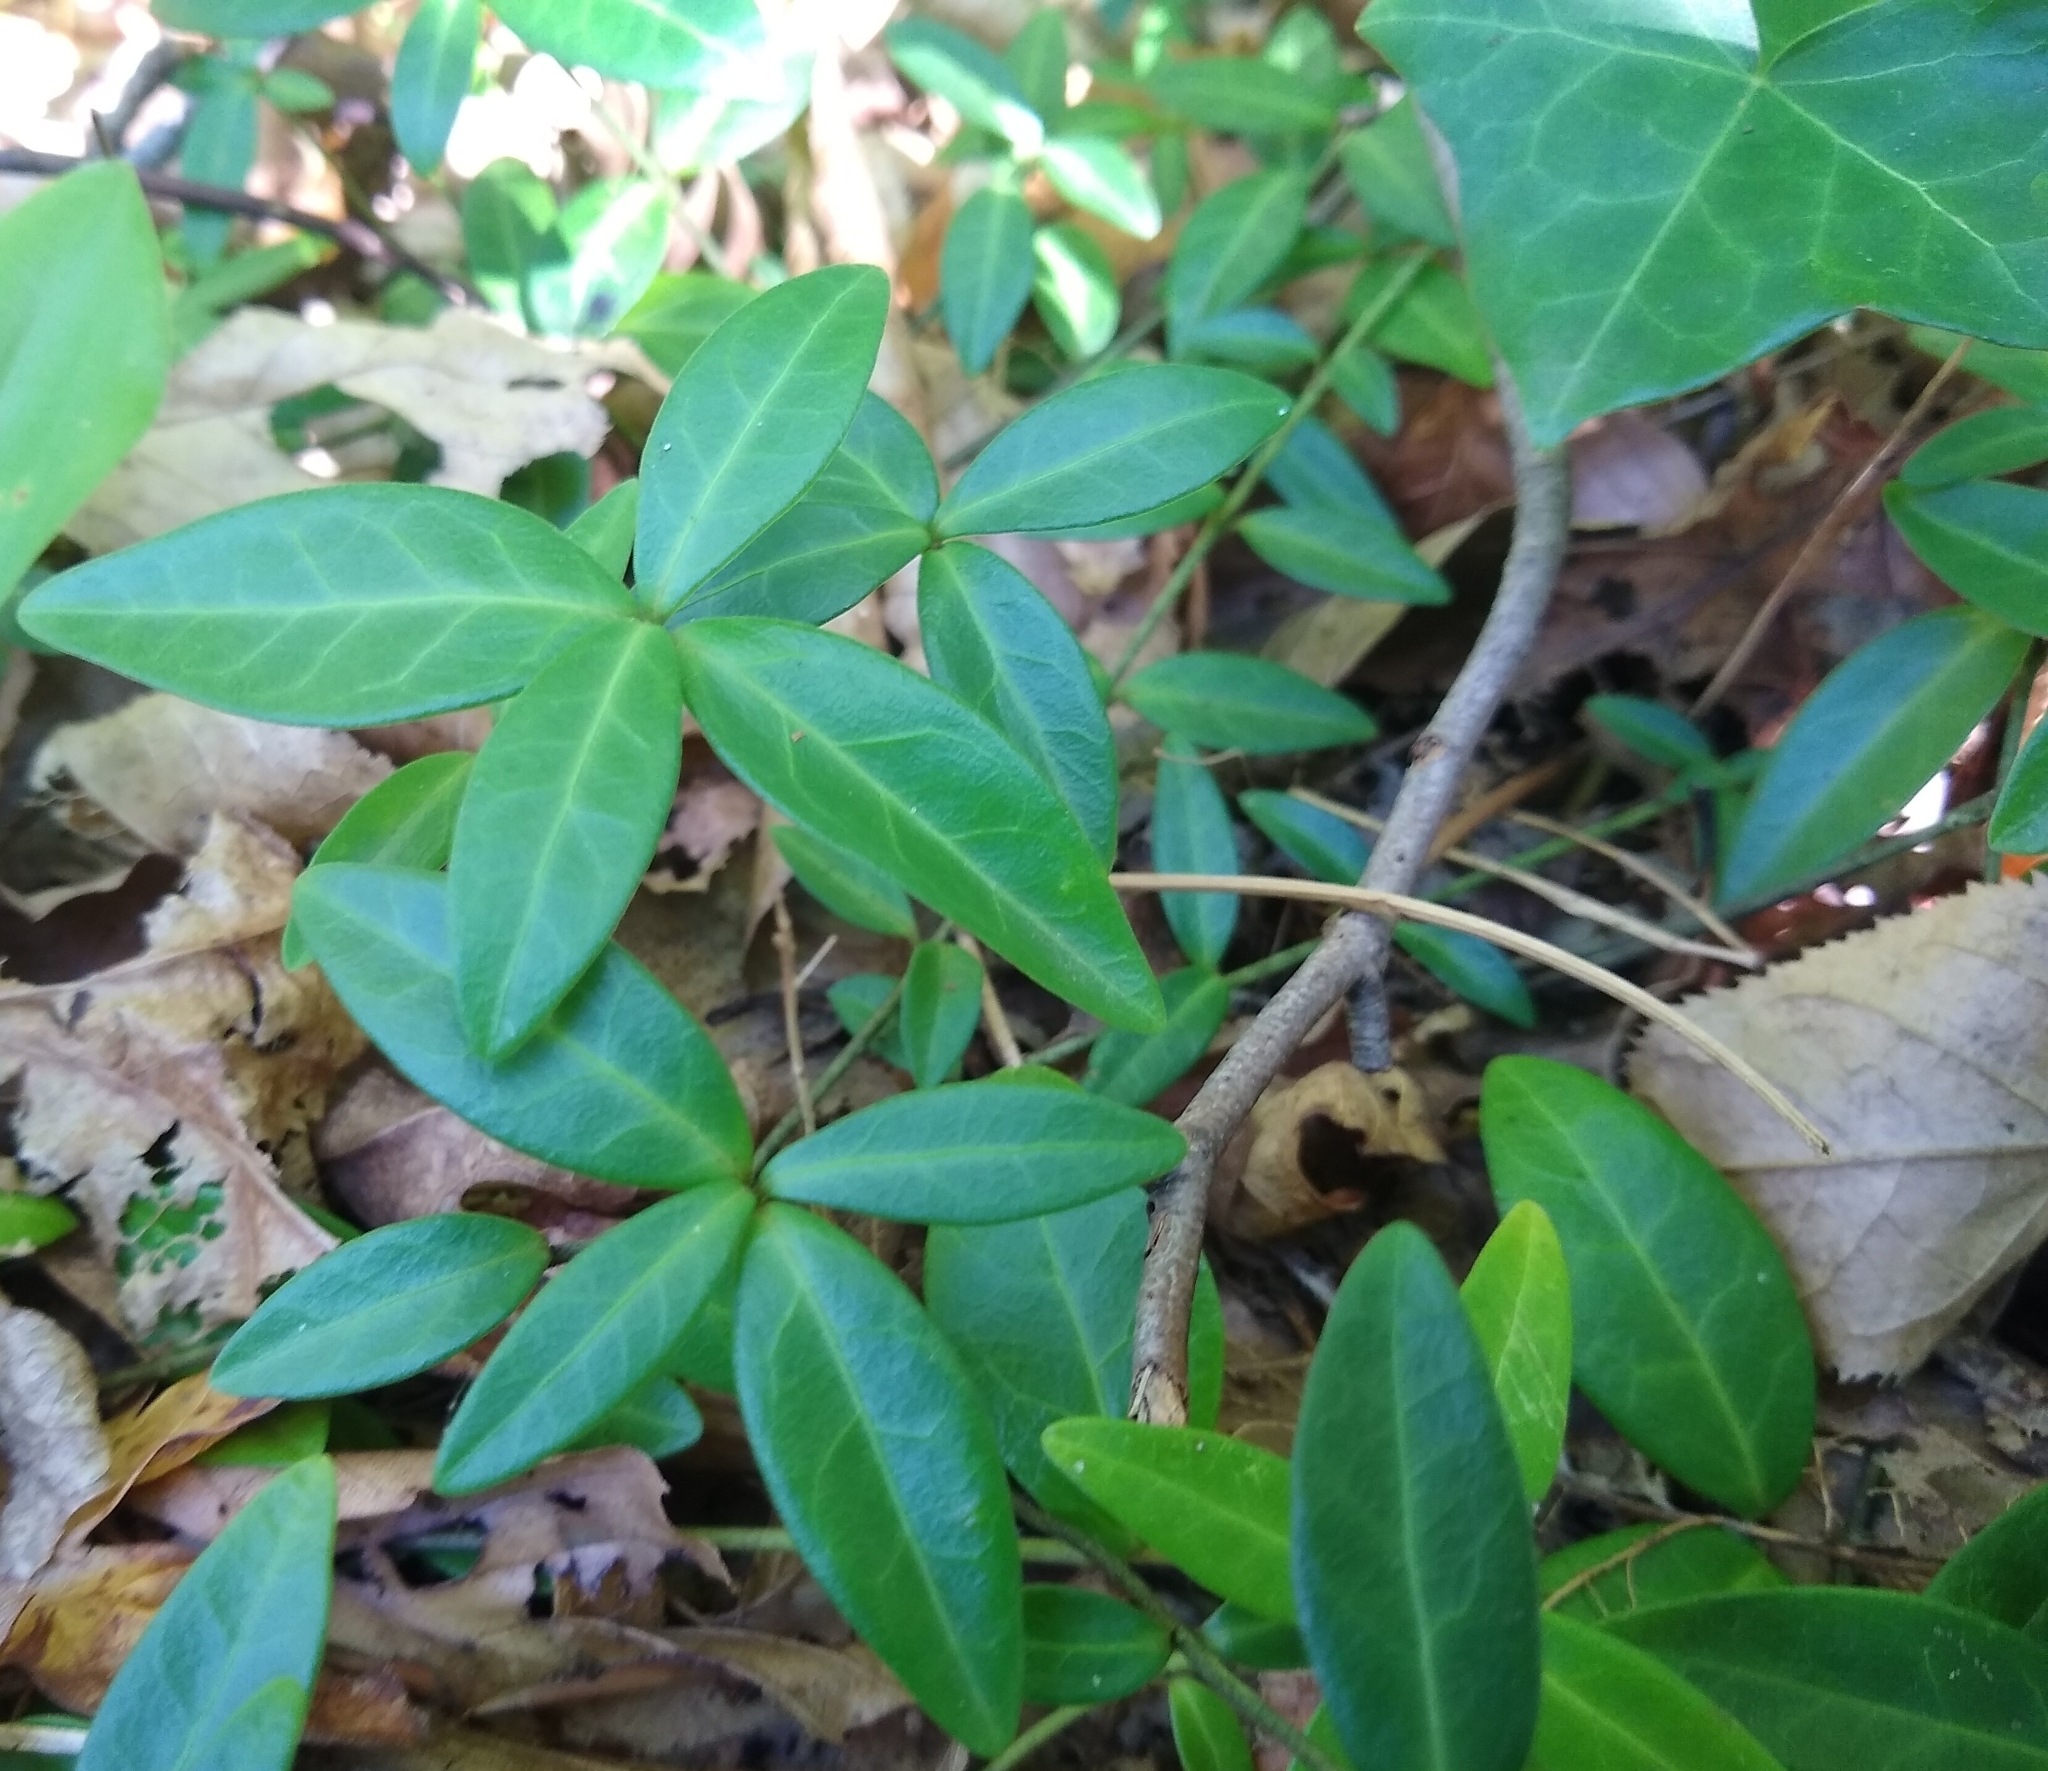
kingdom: Plantae
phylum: Tracheophyta
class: Magnoliopsida
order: Gentianales
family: Apocynaceae
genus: Vinca
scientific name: Vinca minor
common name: Lesser periwinkle
